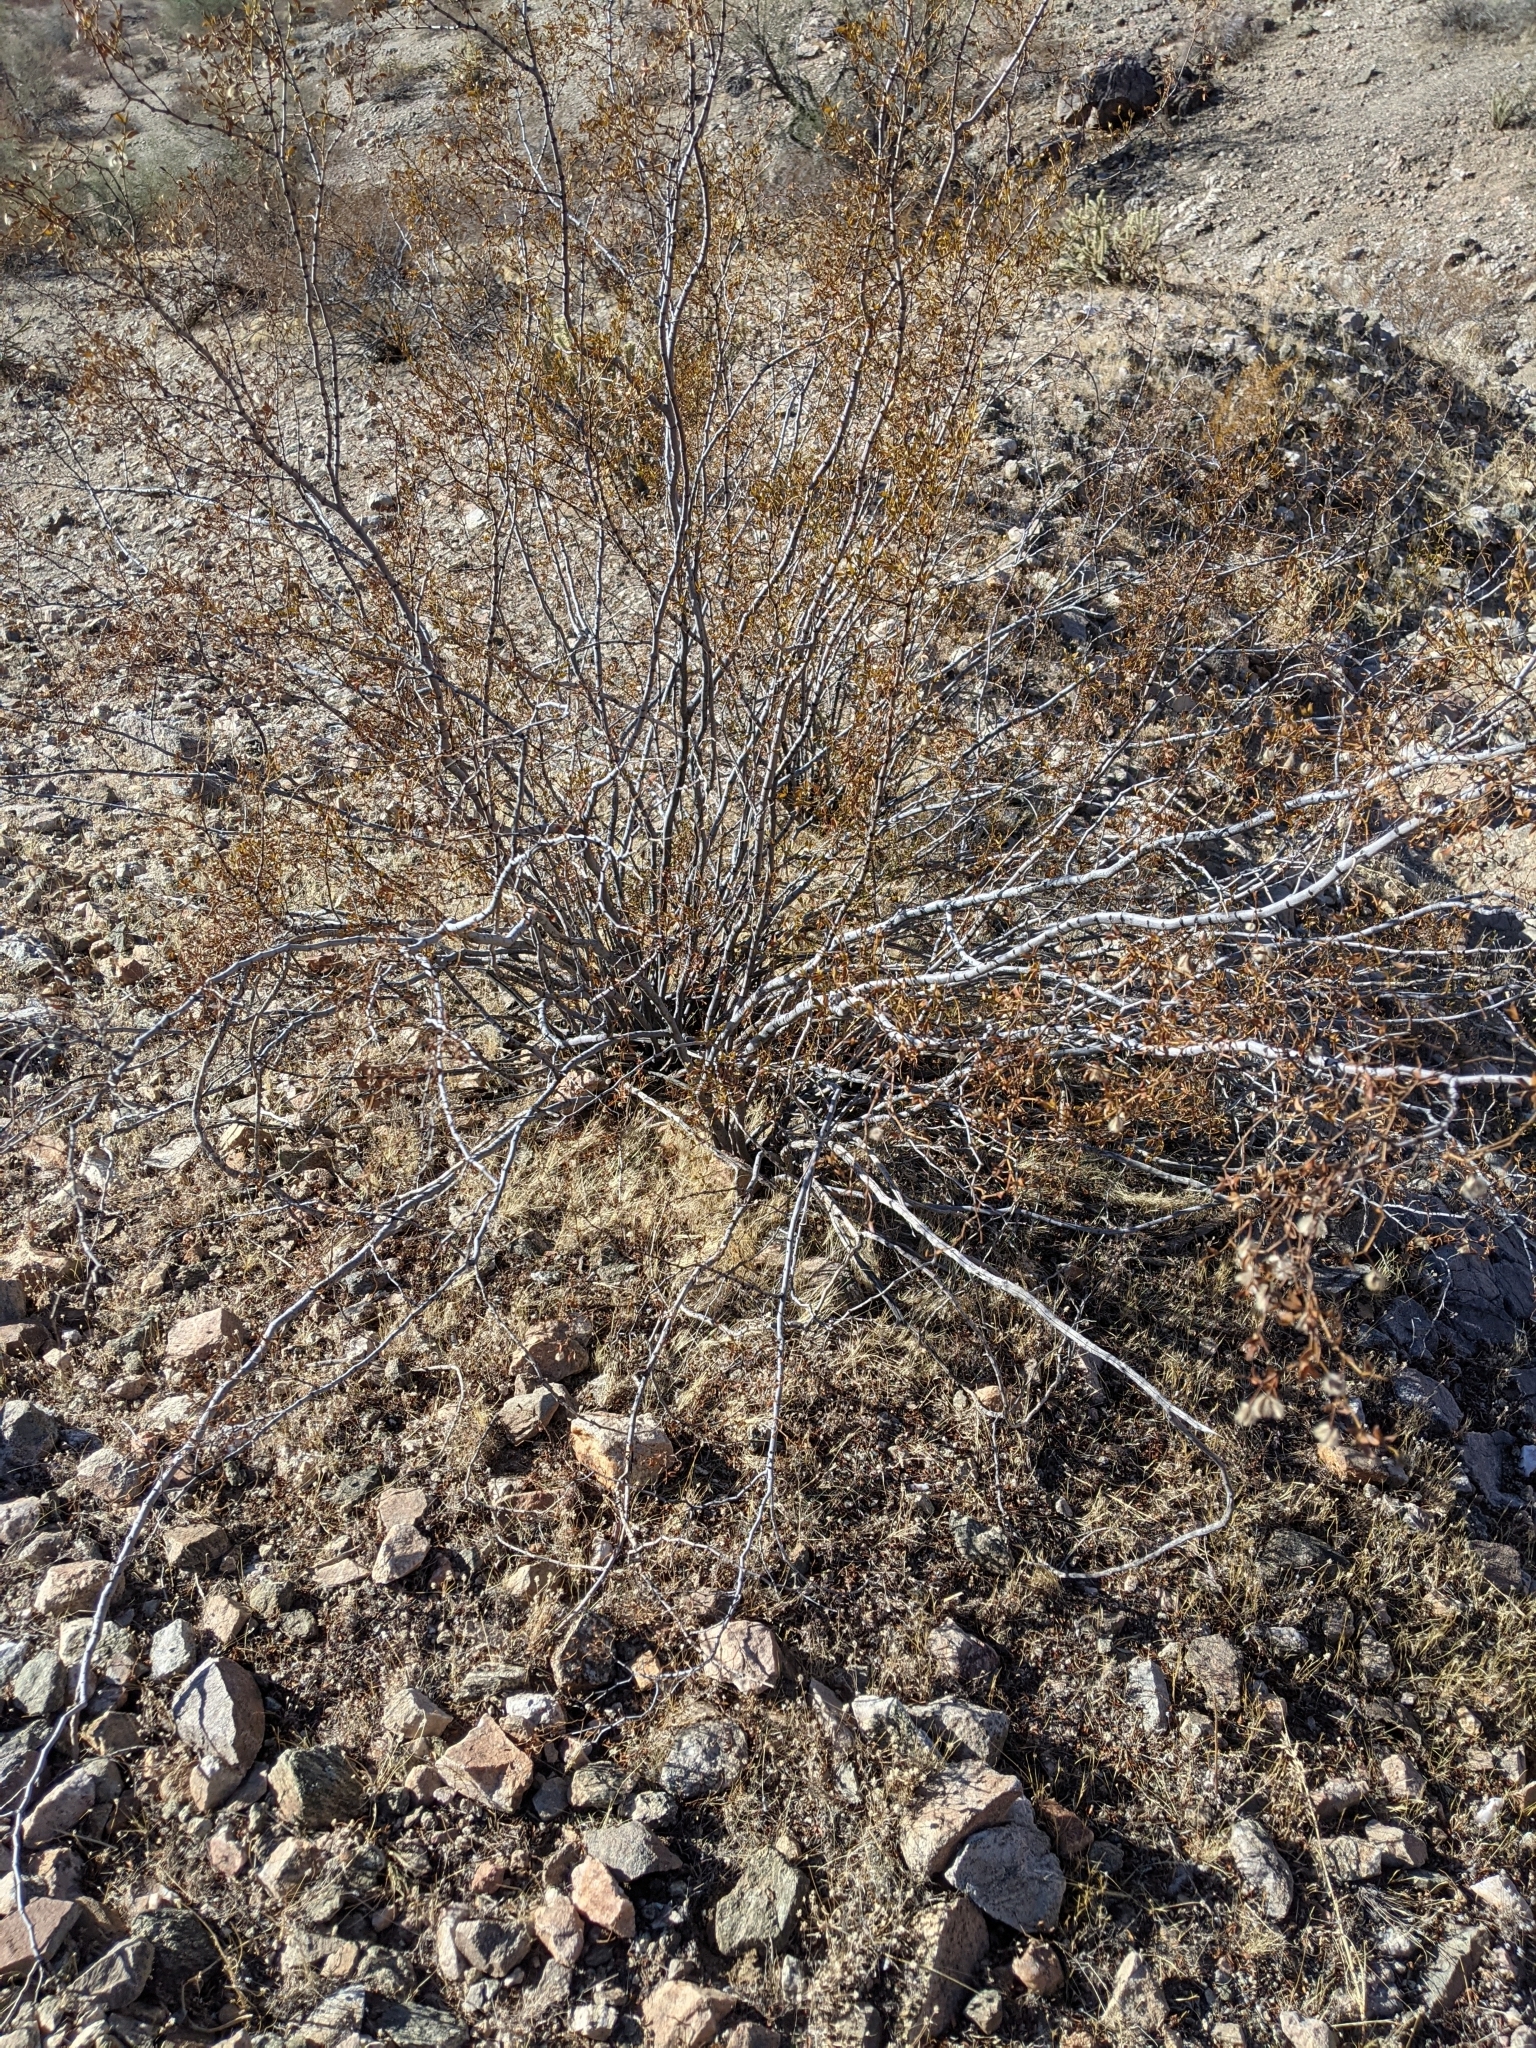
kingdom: Plantae
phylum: Tracheophyta
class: Magnoliopsida
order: Zygophyllales
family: Zygophyllaceae
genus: Larrea
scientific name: Larrea tridentata
